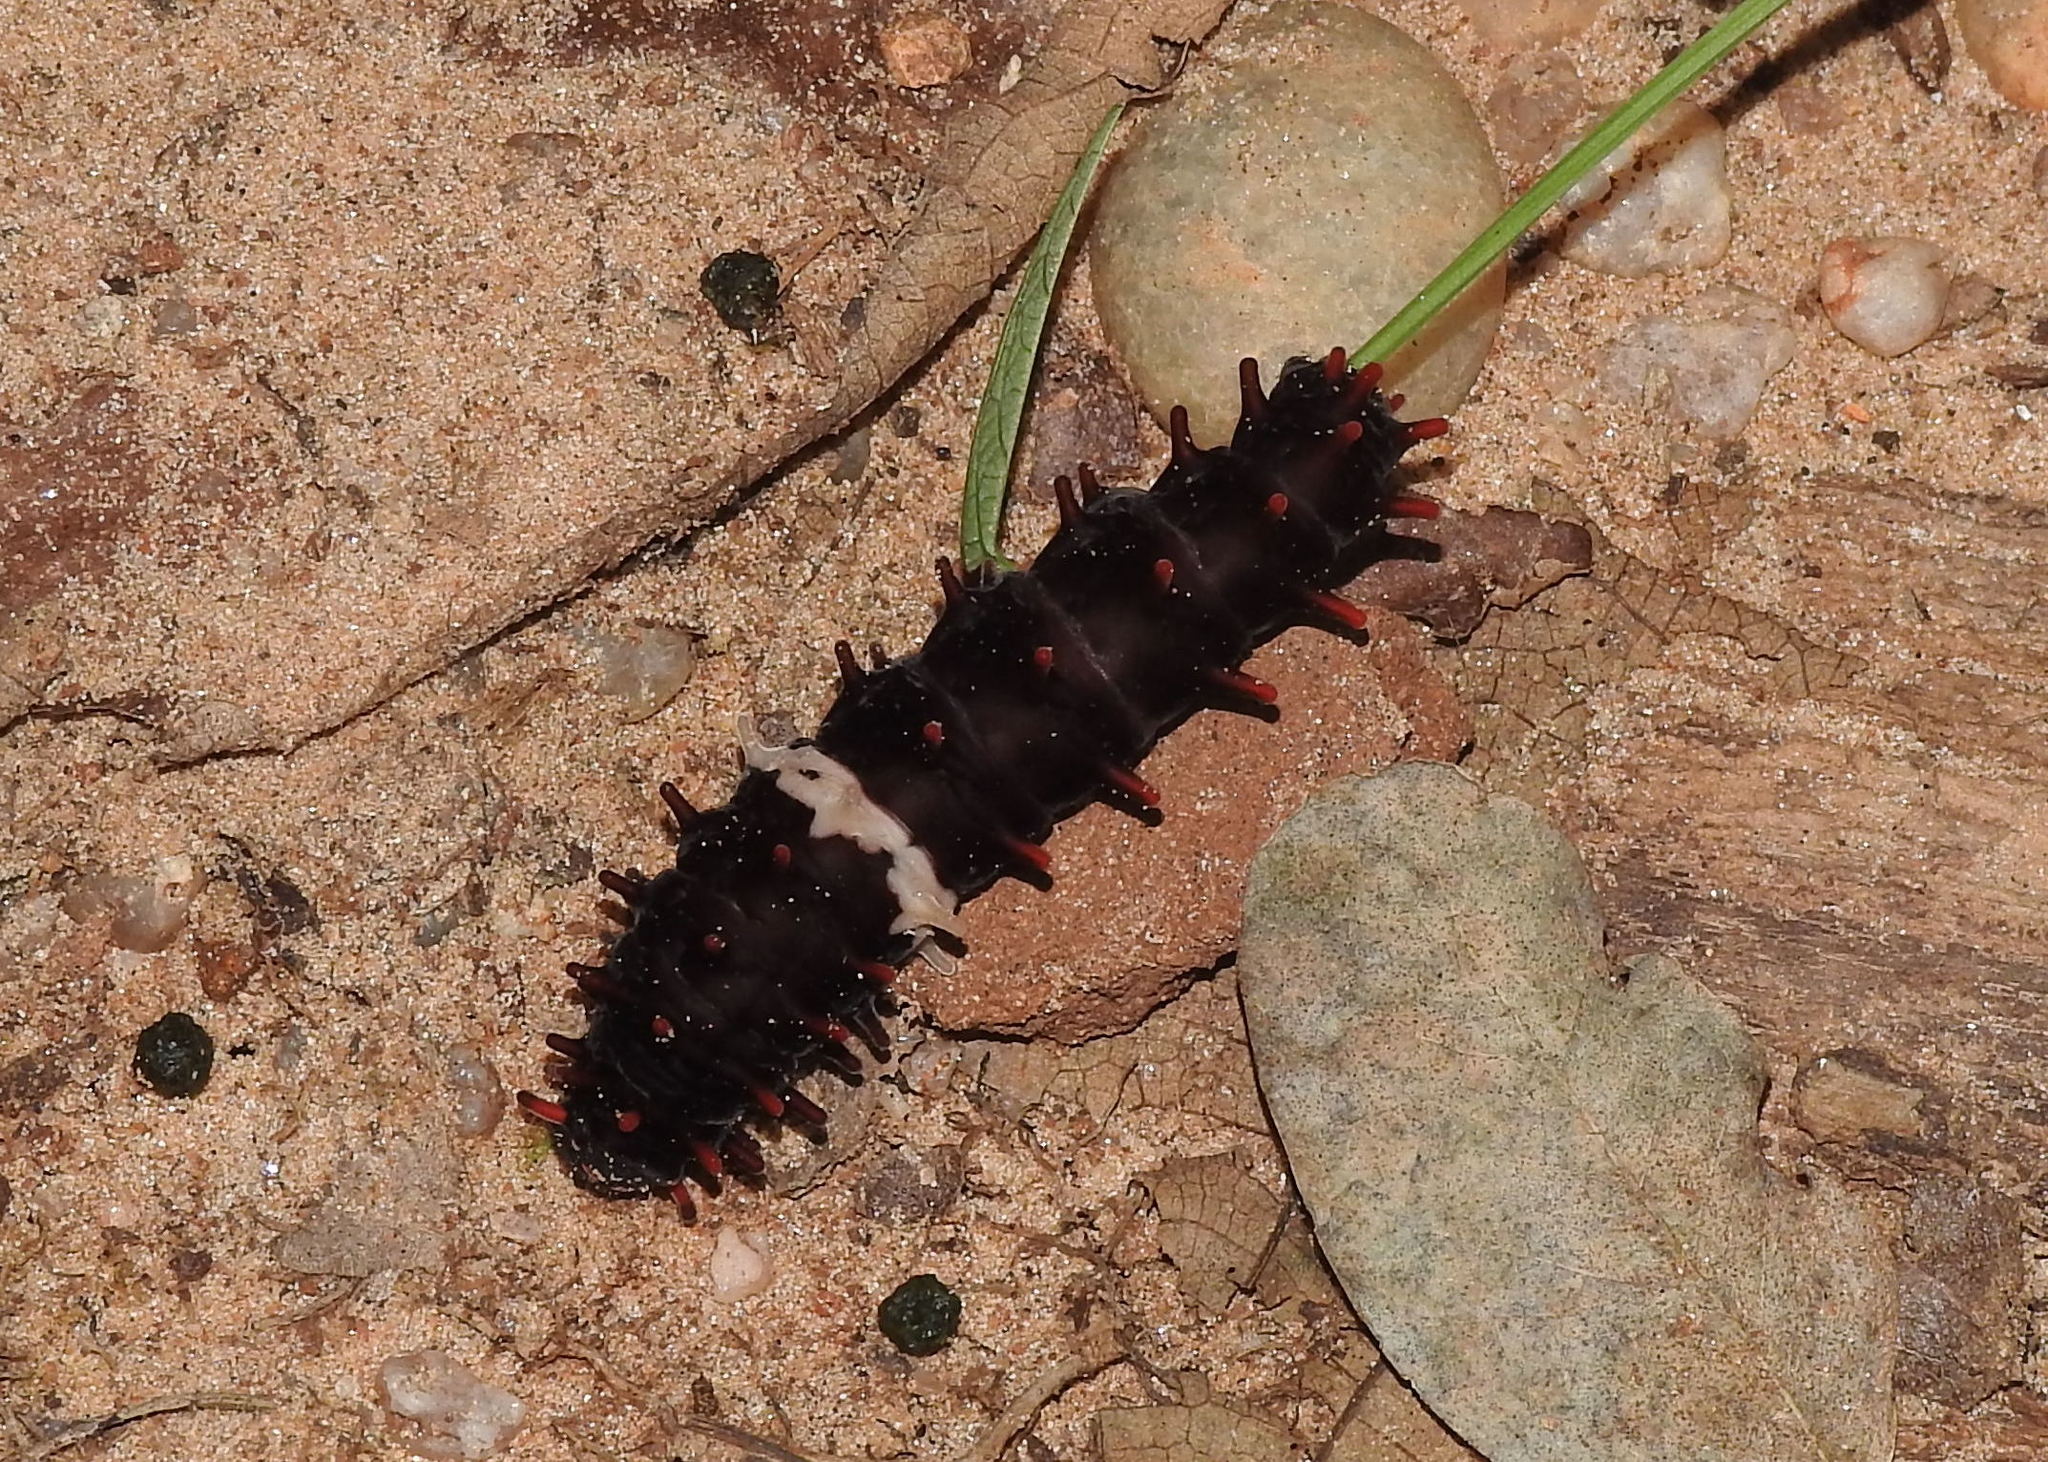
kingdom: Animalia
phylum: Arthropoda
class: Insecta
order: Lepidoptera
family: Papilionidae
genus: Pachliopta
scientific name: Pachliopta aristolochiae
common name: Common rose
